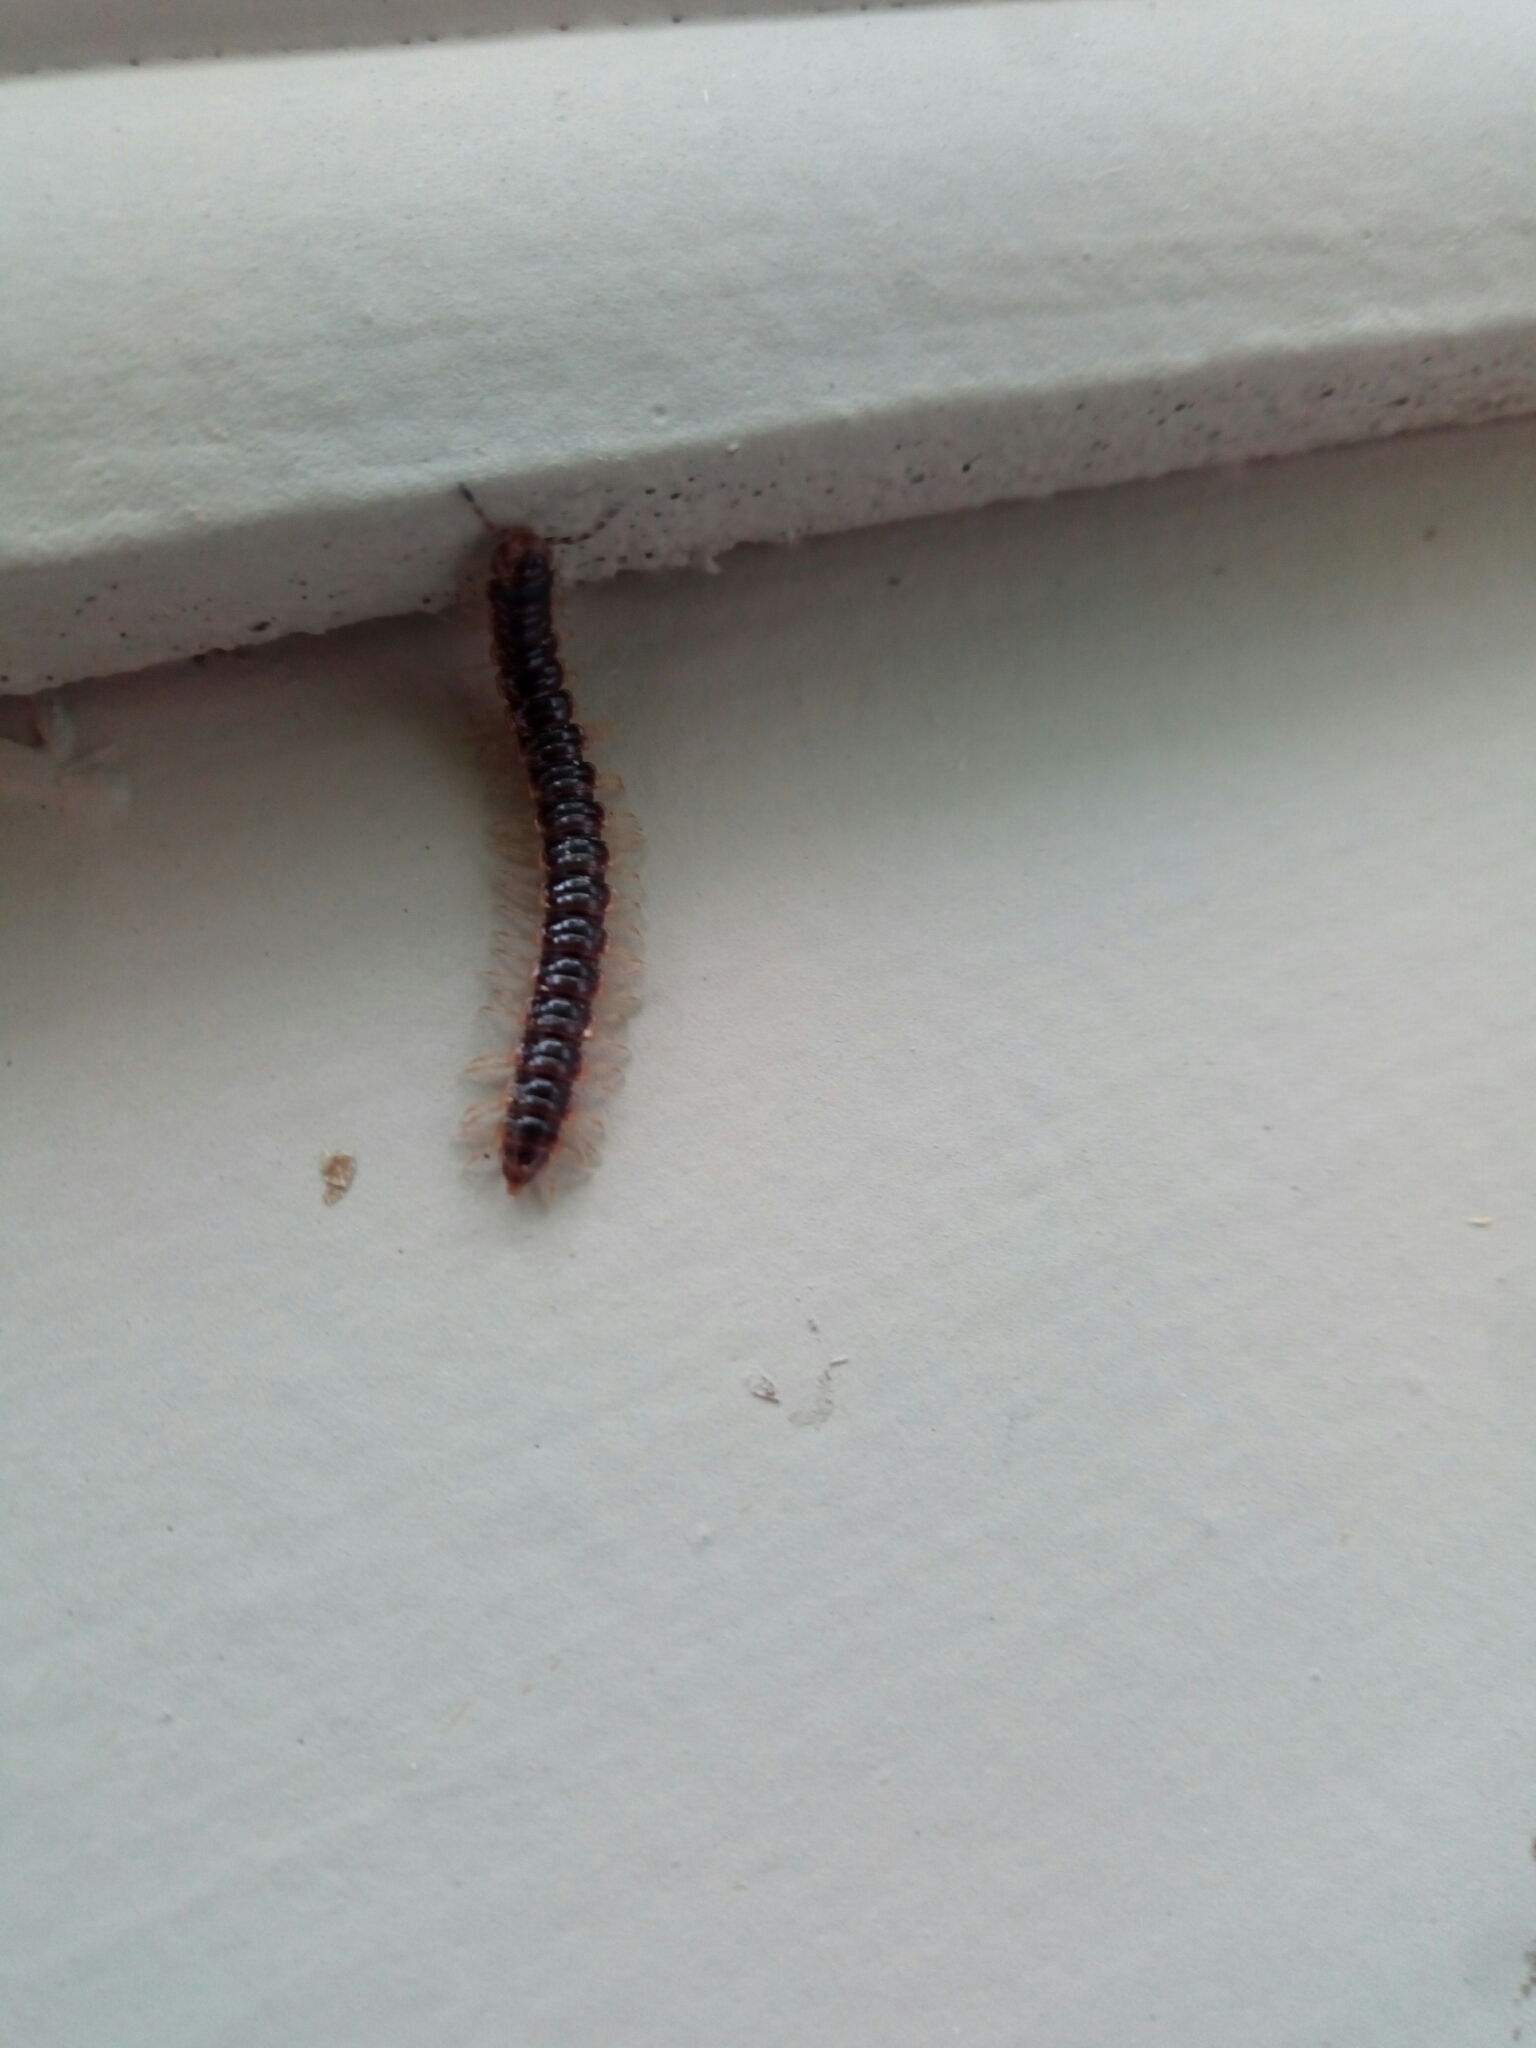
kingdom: Animalia
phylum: Arthropoda
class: Diplopoda
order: Polydesmida
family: Paradoxosomatidae
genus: Oxidus
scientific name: Oxidus gracilis
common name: Greenhouse millipede
